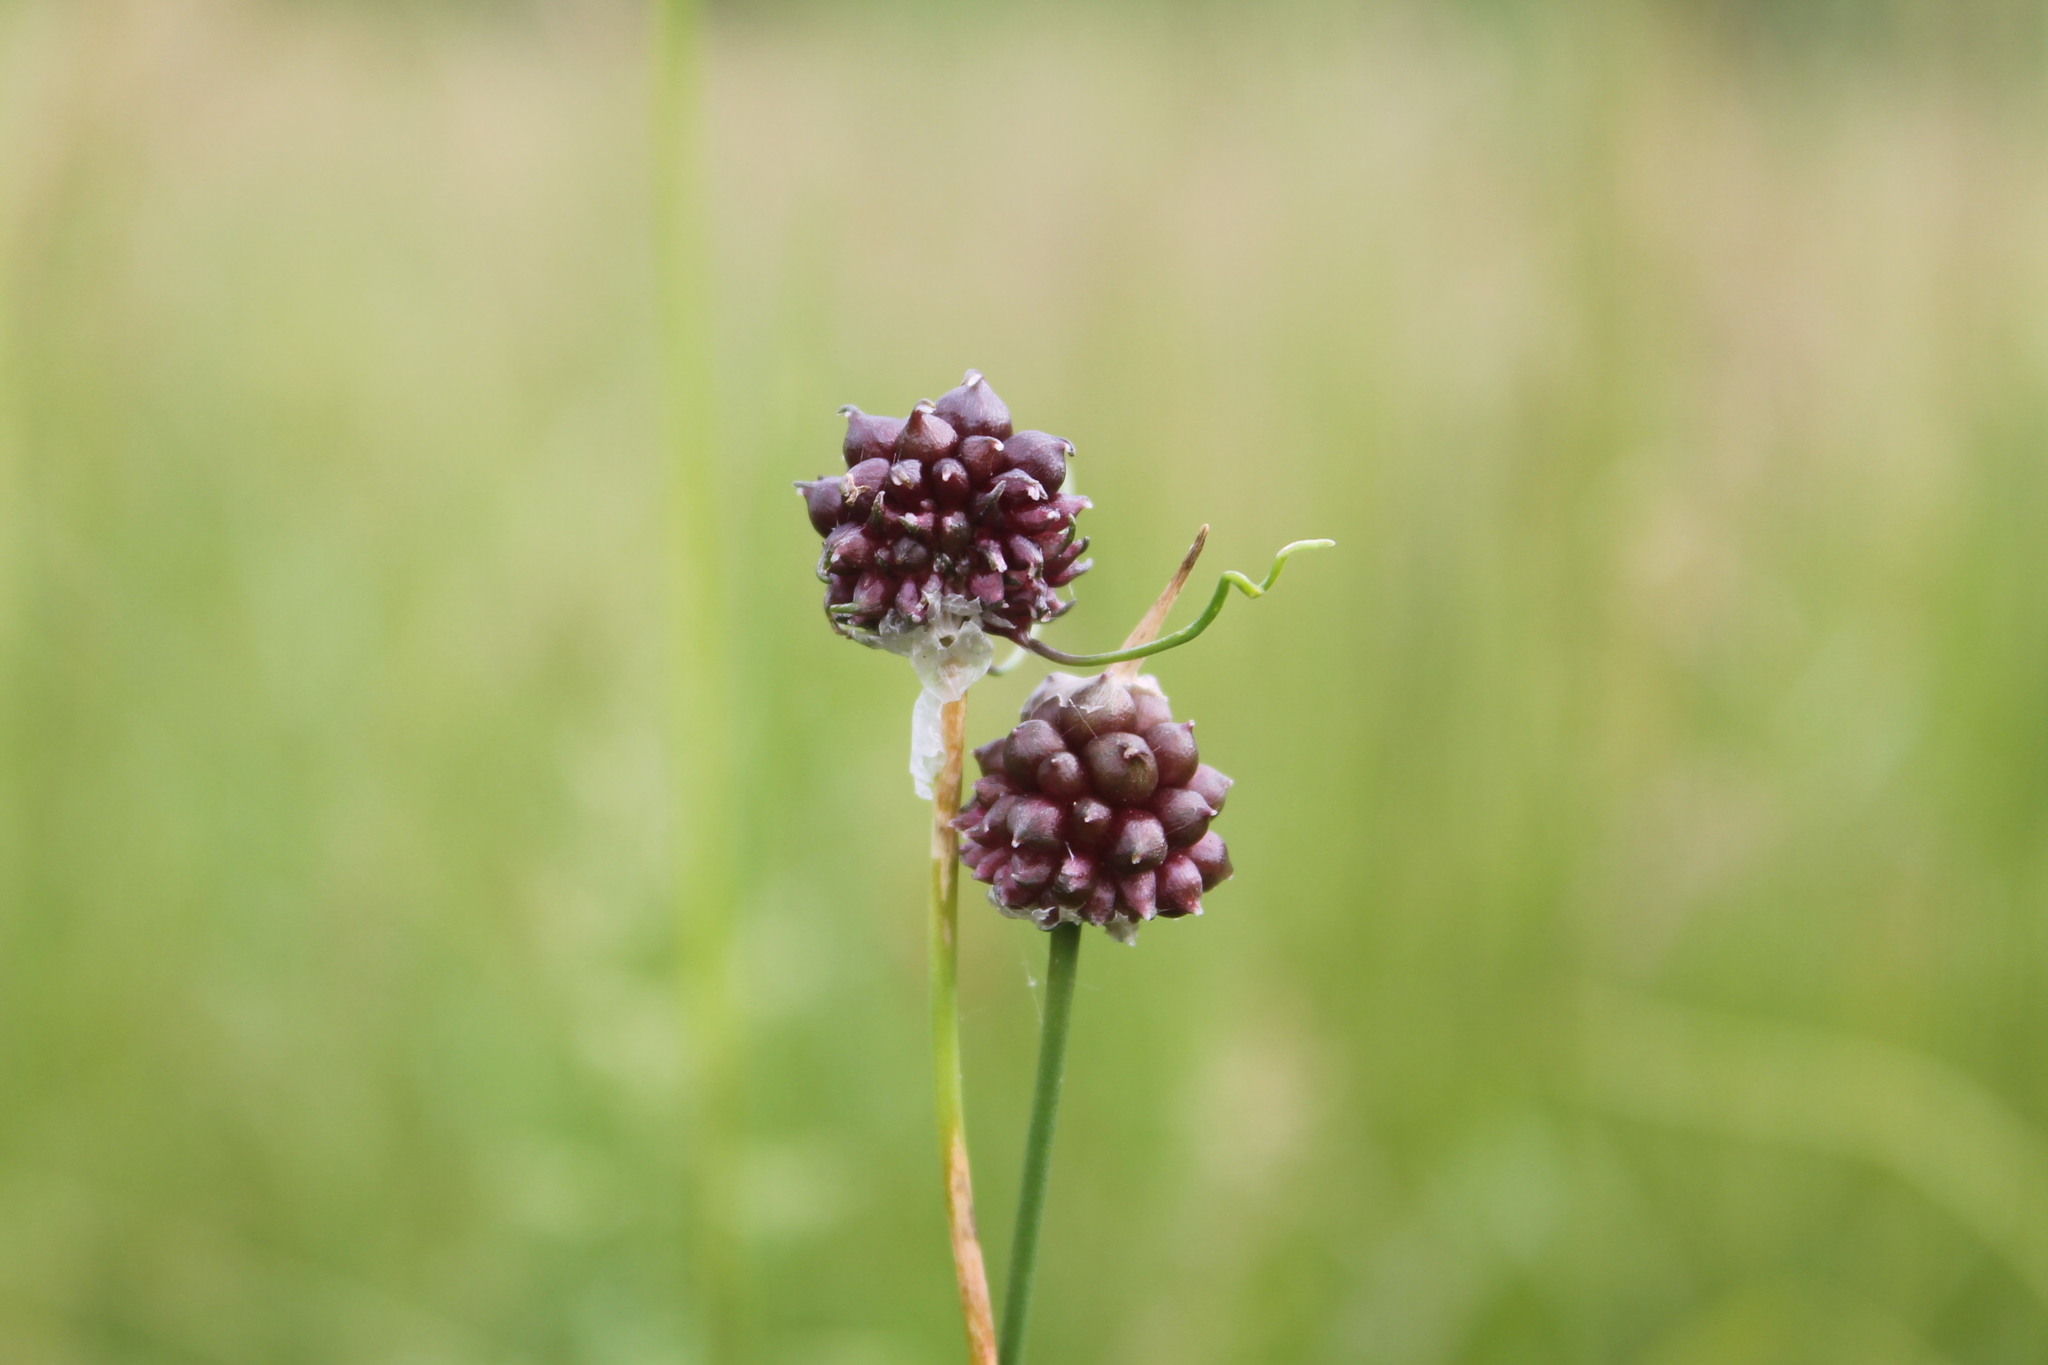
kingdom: Plantae
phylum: Tracheophyta
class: Liliopsida
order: Asparagales
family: Amaryllidaceae
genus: Allium
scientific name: Allium vineale
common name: Crow garlic
